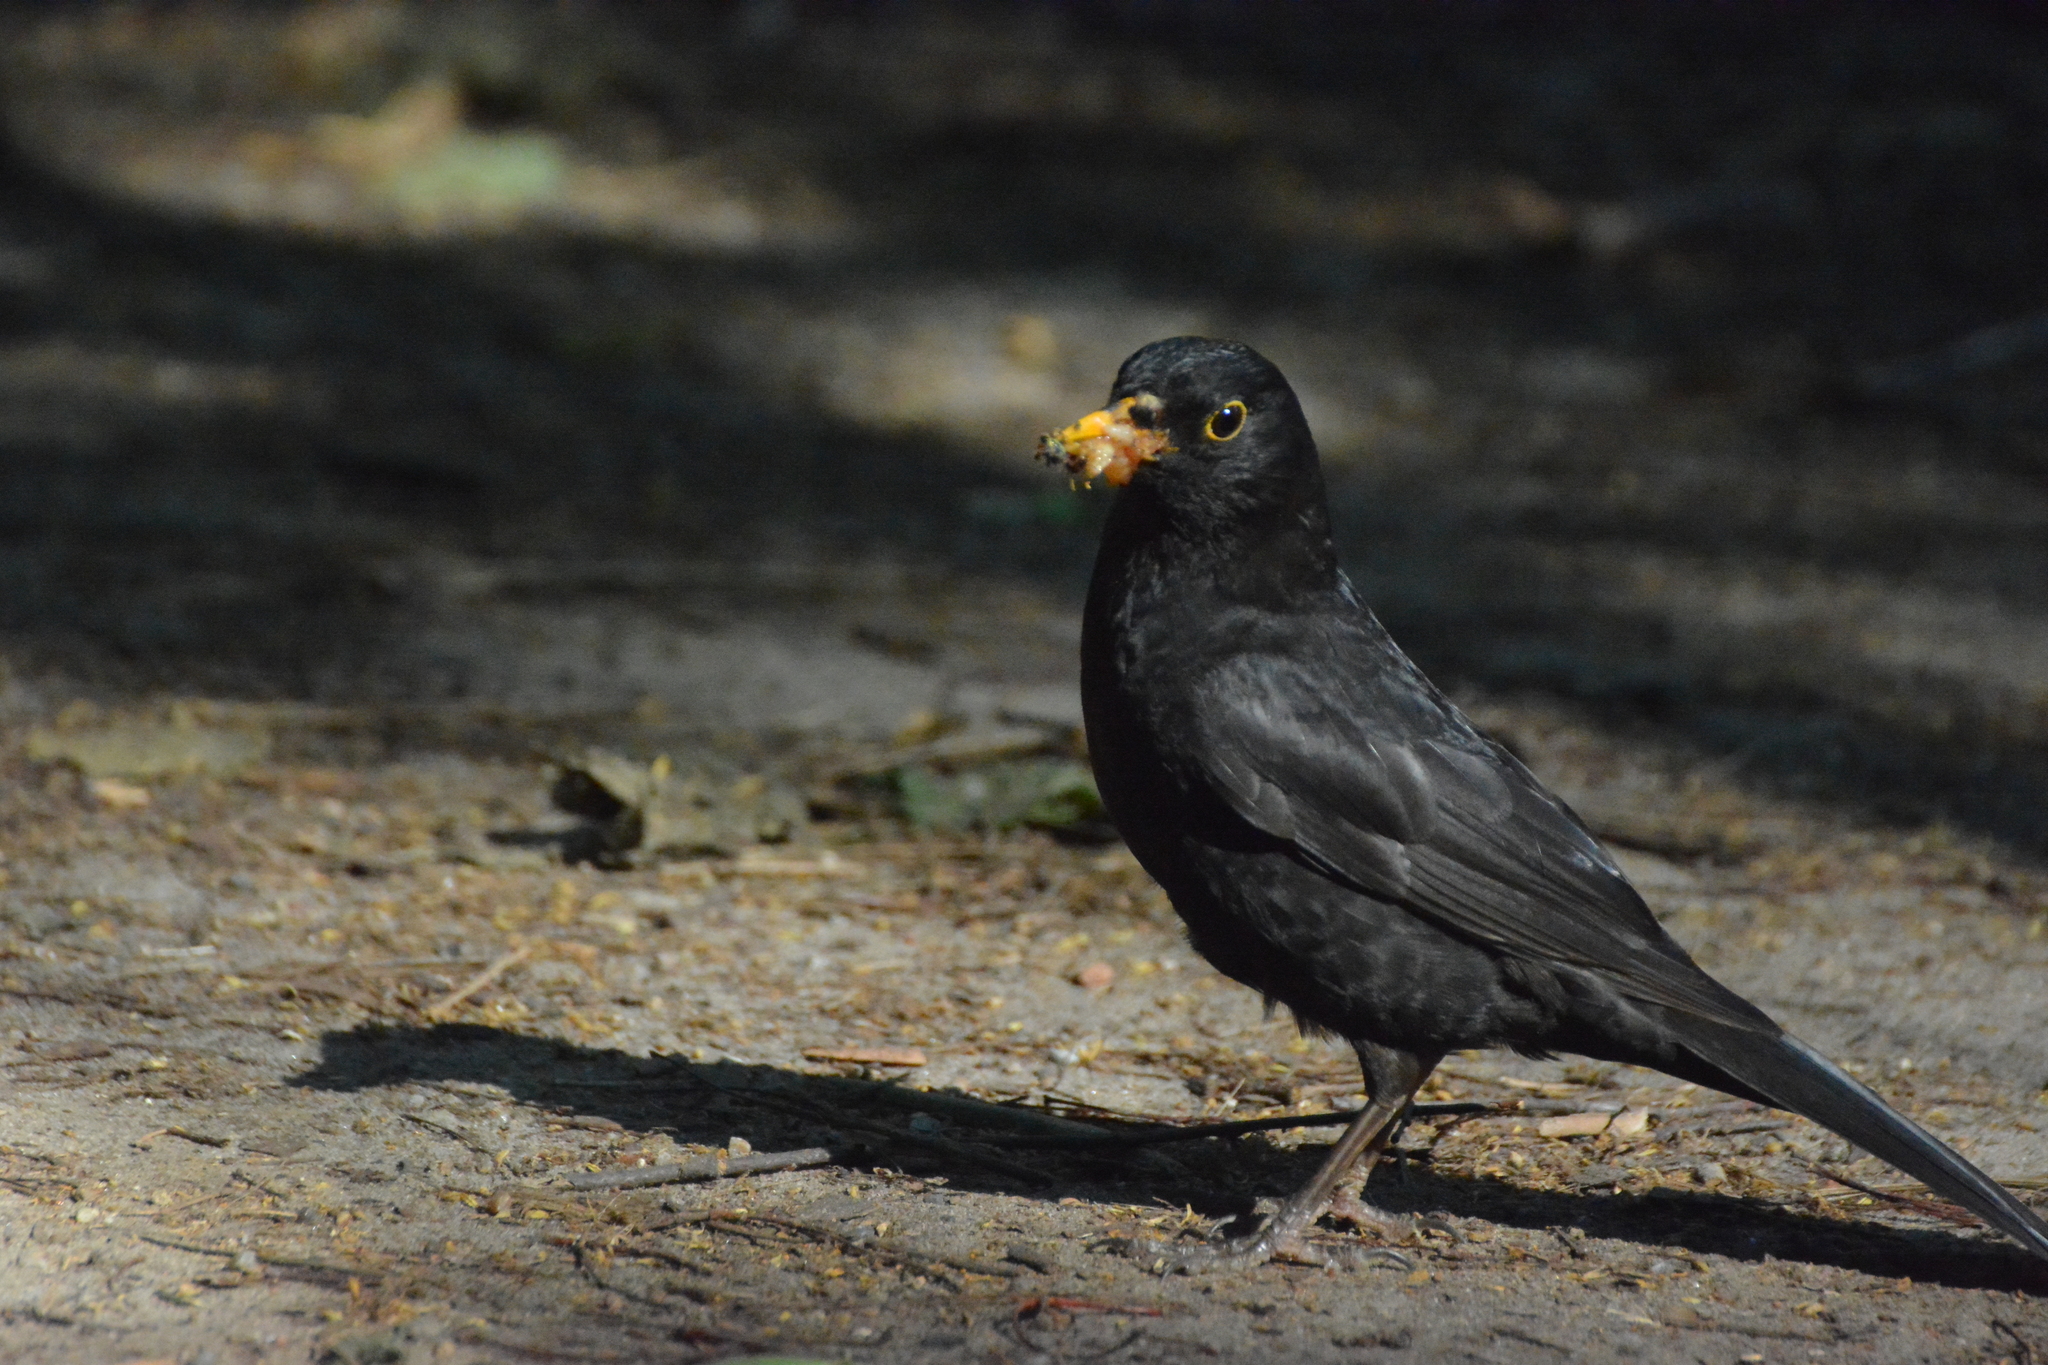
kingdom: Animalia
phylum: Chordata
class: Aves
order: Passeriformes
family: Turdidae
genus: Turdus
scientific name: Turdus merula
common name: Common blackbird
